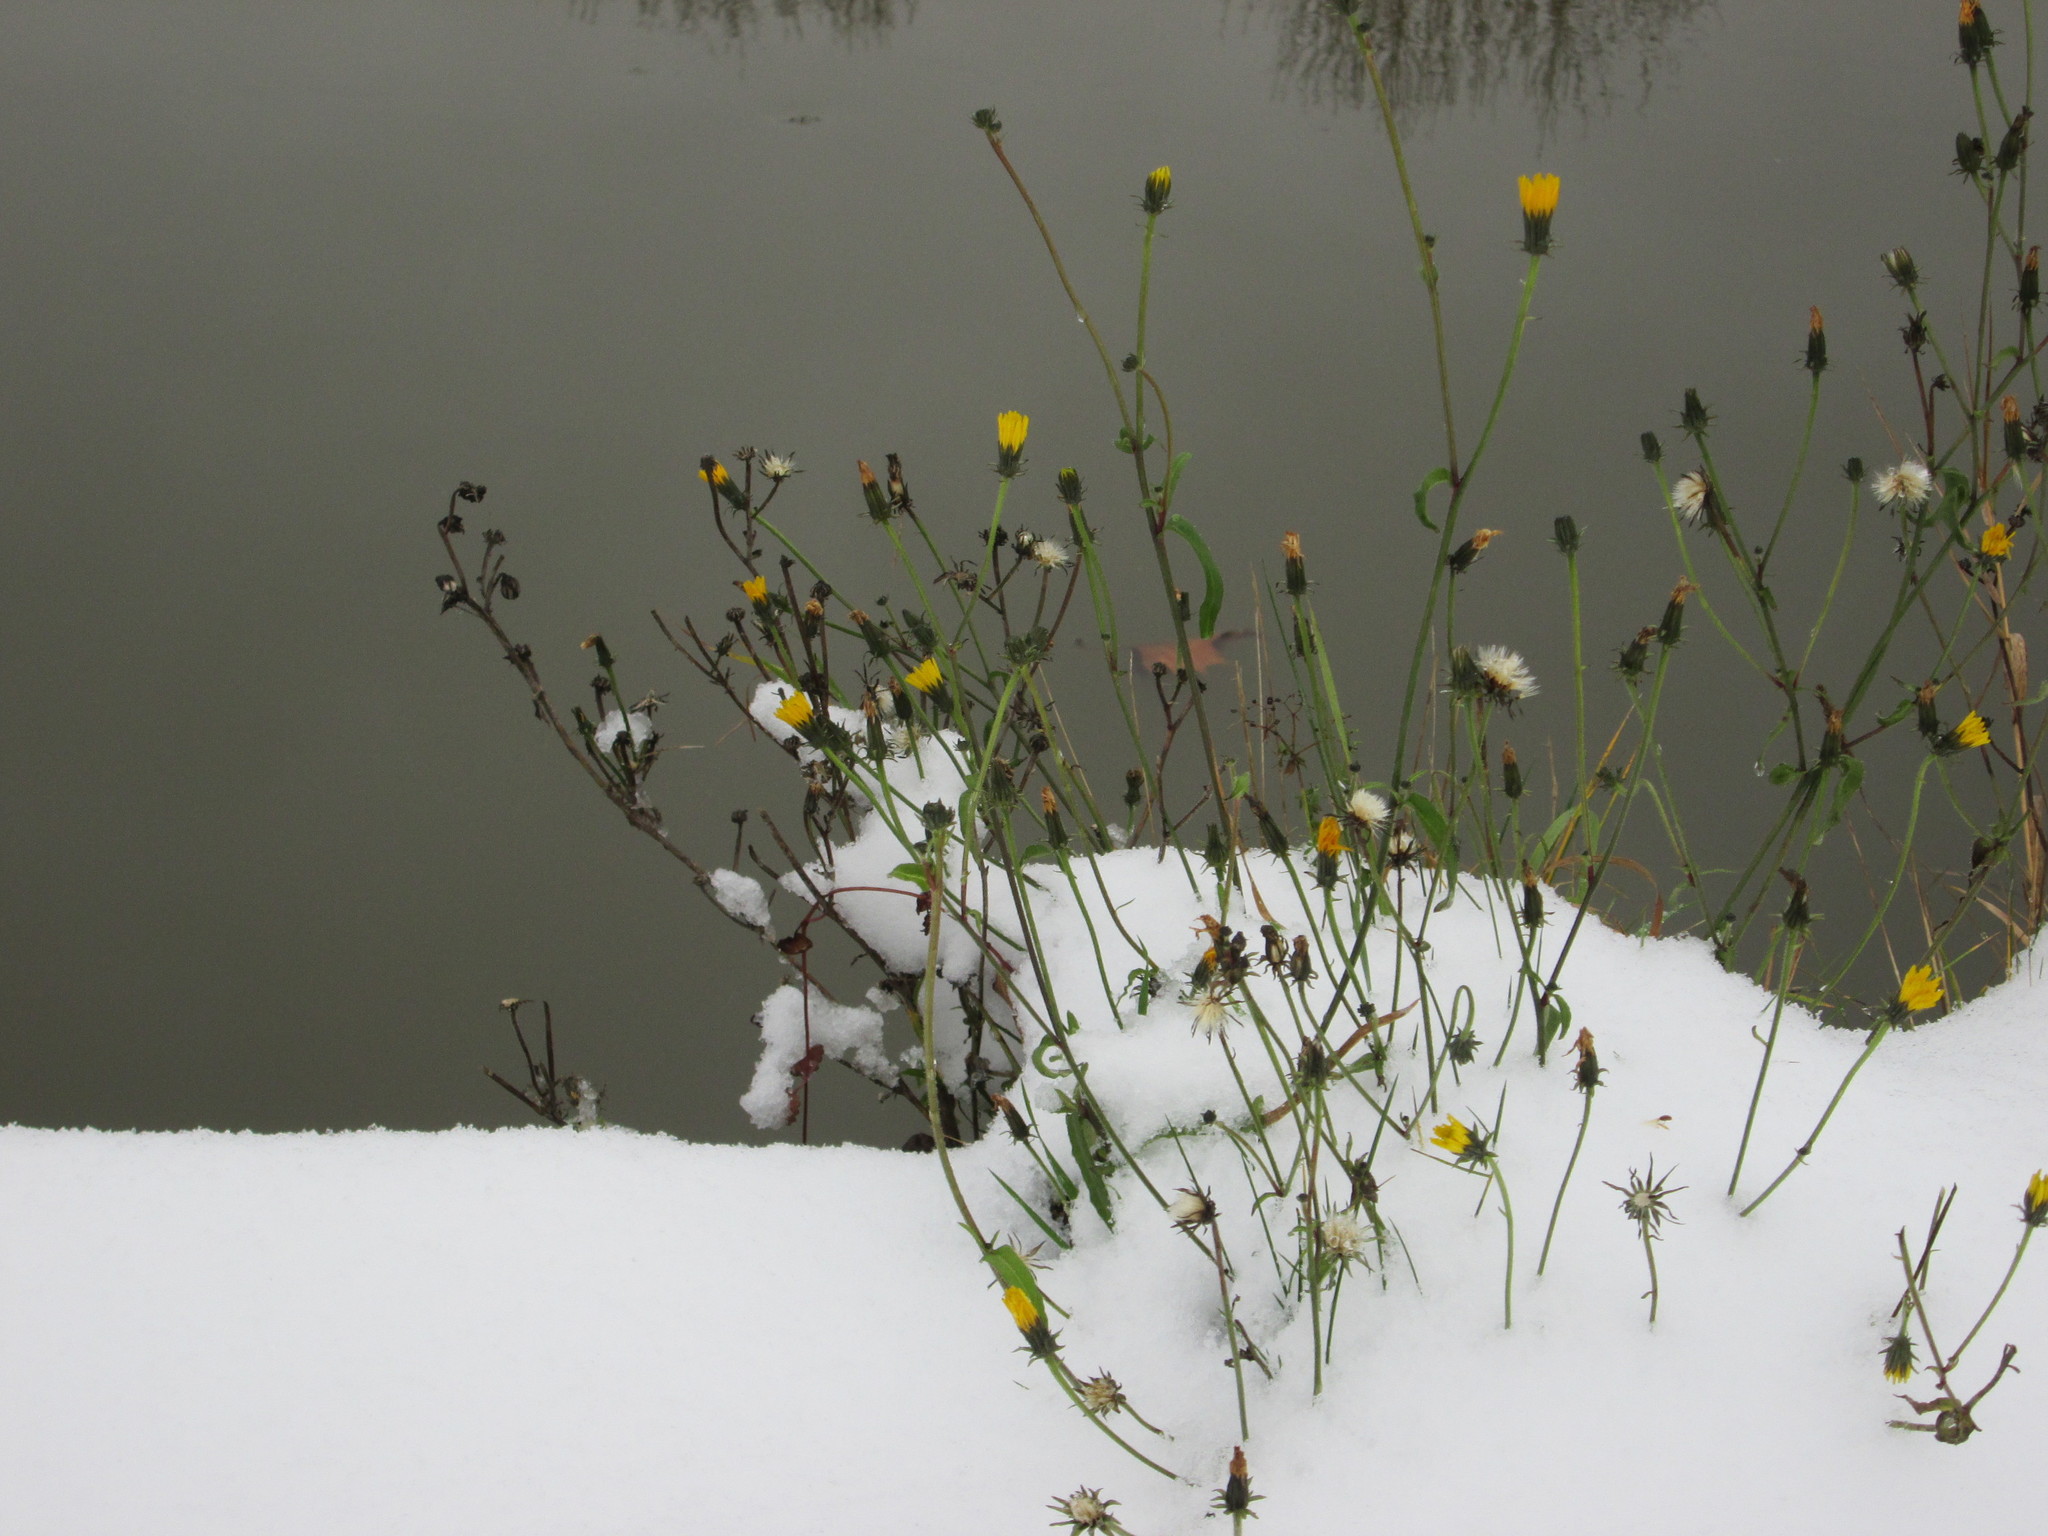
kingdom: Plantae
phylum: Tracheophyta
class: Magnoliopsida
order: Asterales
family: Asteraceae
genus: Picris
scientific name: Picris hieracioides
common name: Hawkweed oxtongue
